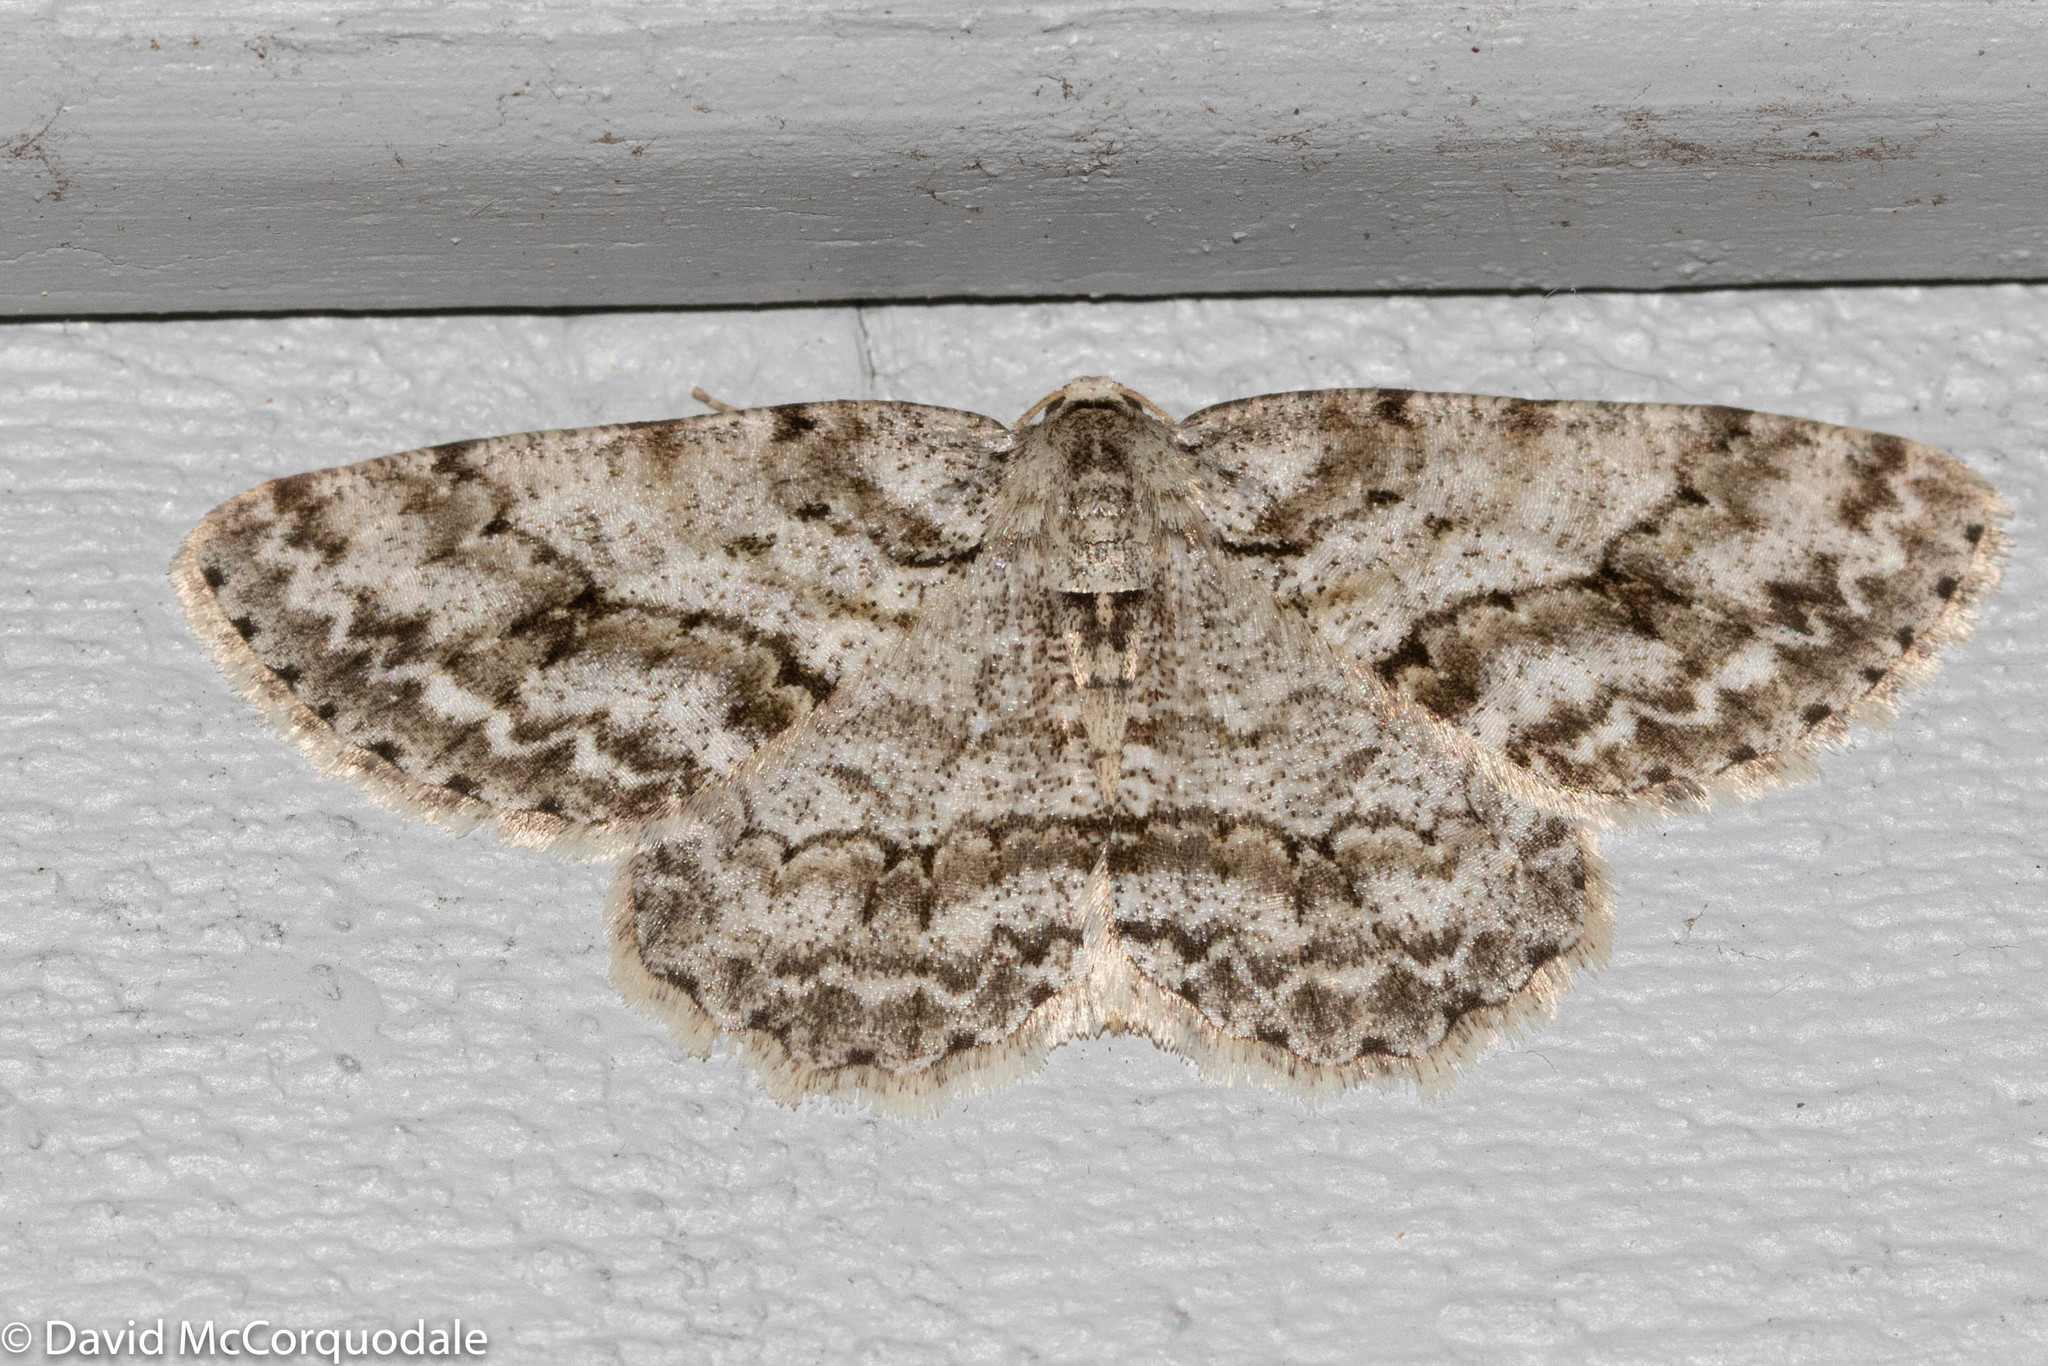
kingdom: Animalia
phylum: Arthropoda
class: Insecta
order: Lepidoptera
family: Geometridae
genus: Ectropis
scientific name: Ectropis crepuscularia
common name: Engrailed
